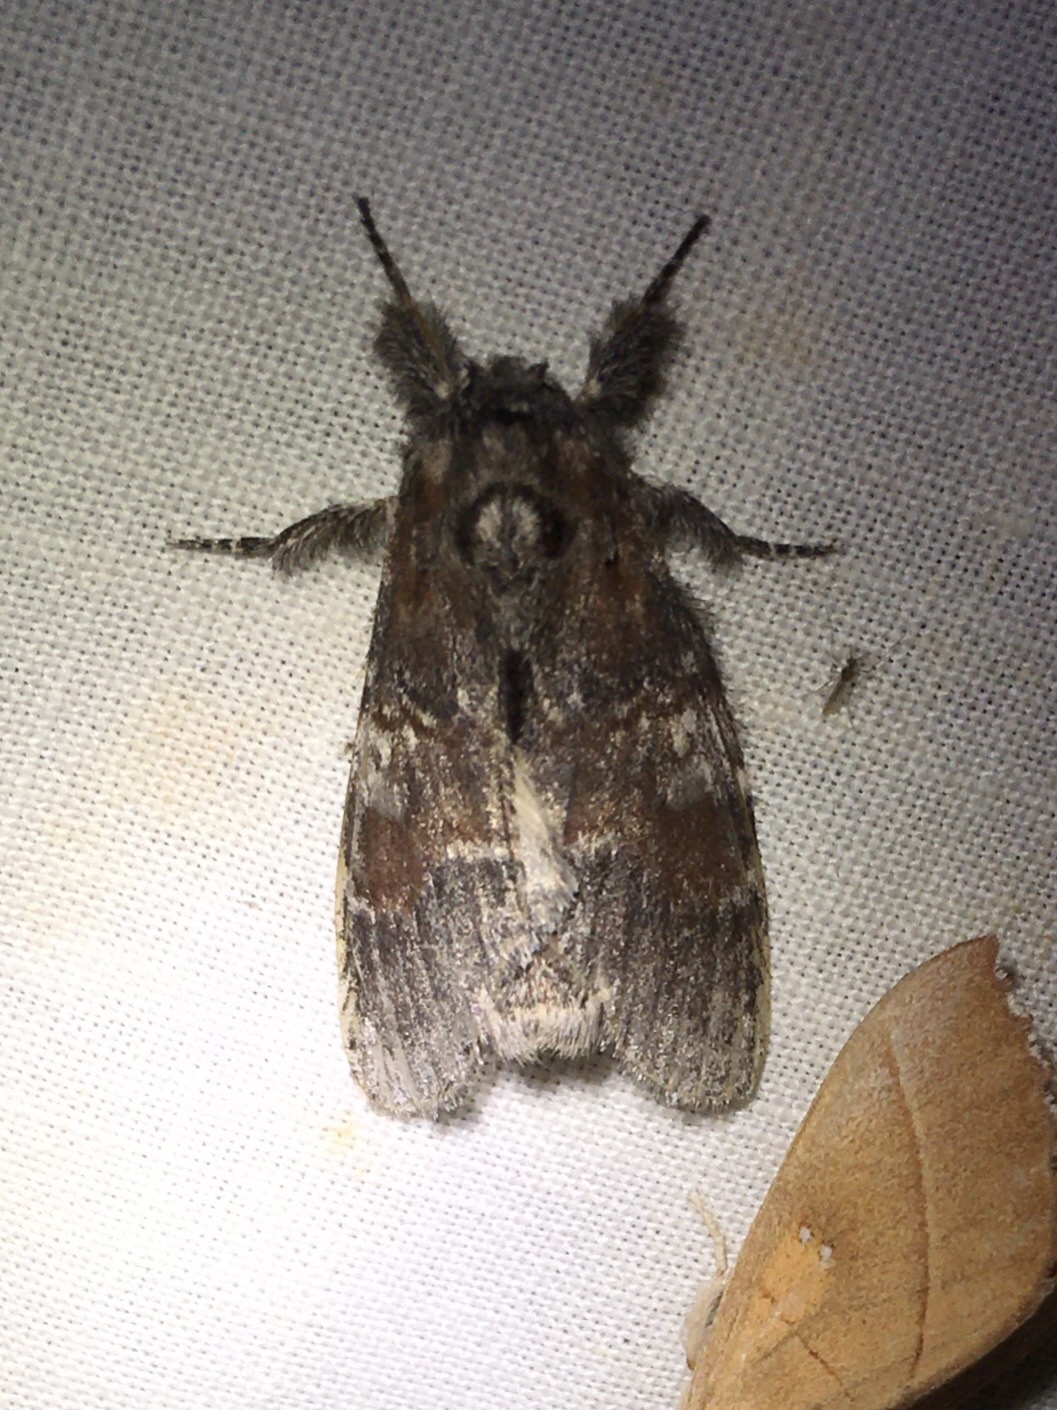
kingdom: Animalia
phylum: Arthropoda
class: Insecta
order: Lepidoptera
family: Notodontidae
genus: Peridea
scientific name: Peridea ferruginea
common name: Chocolate prominent
